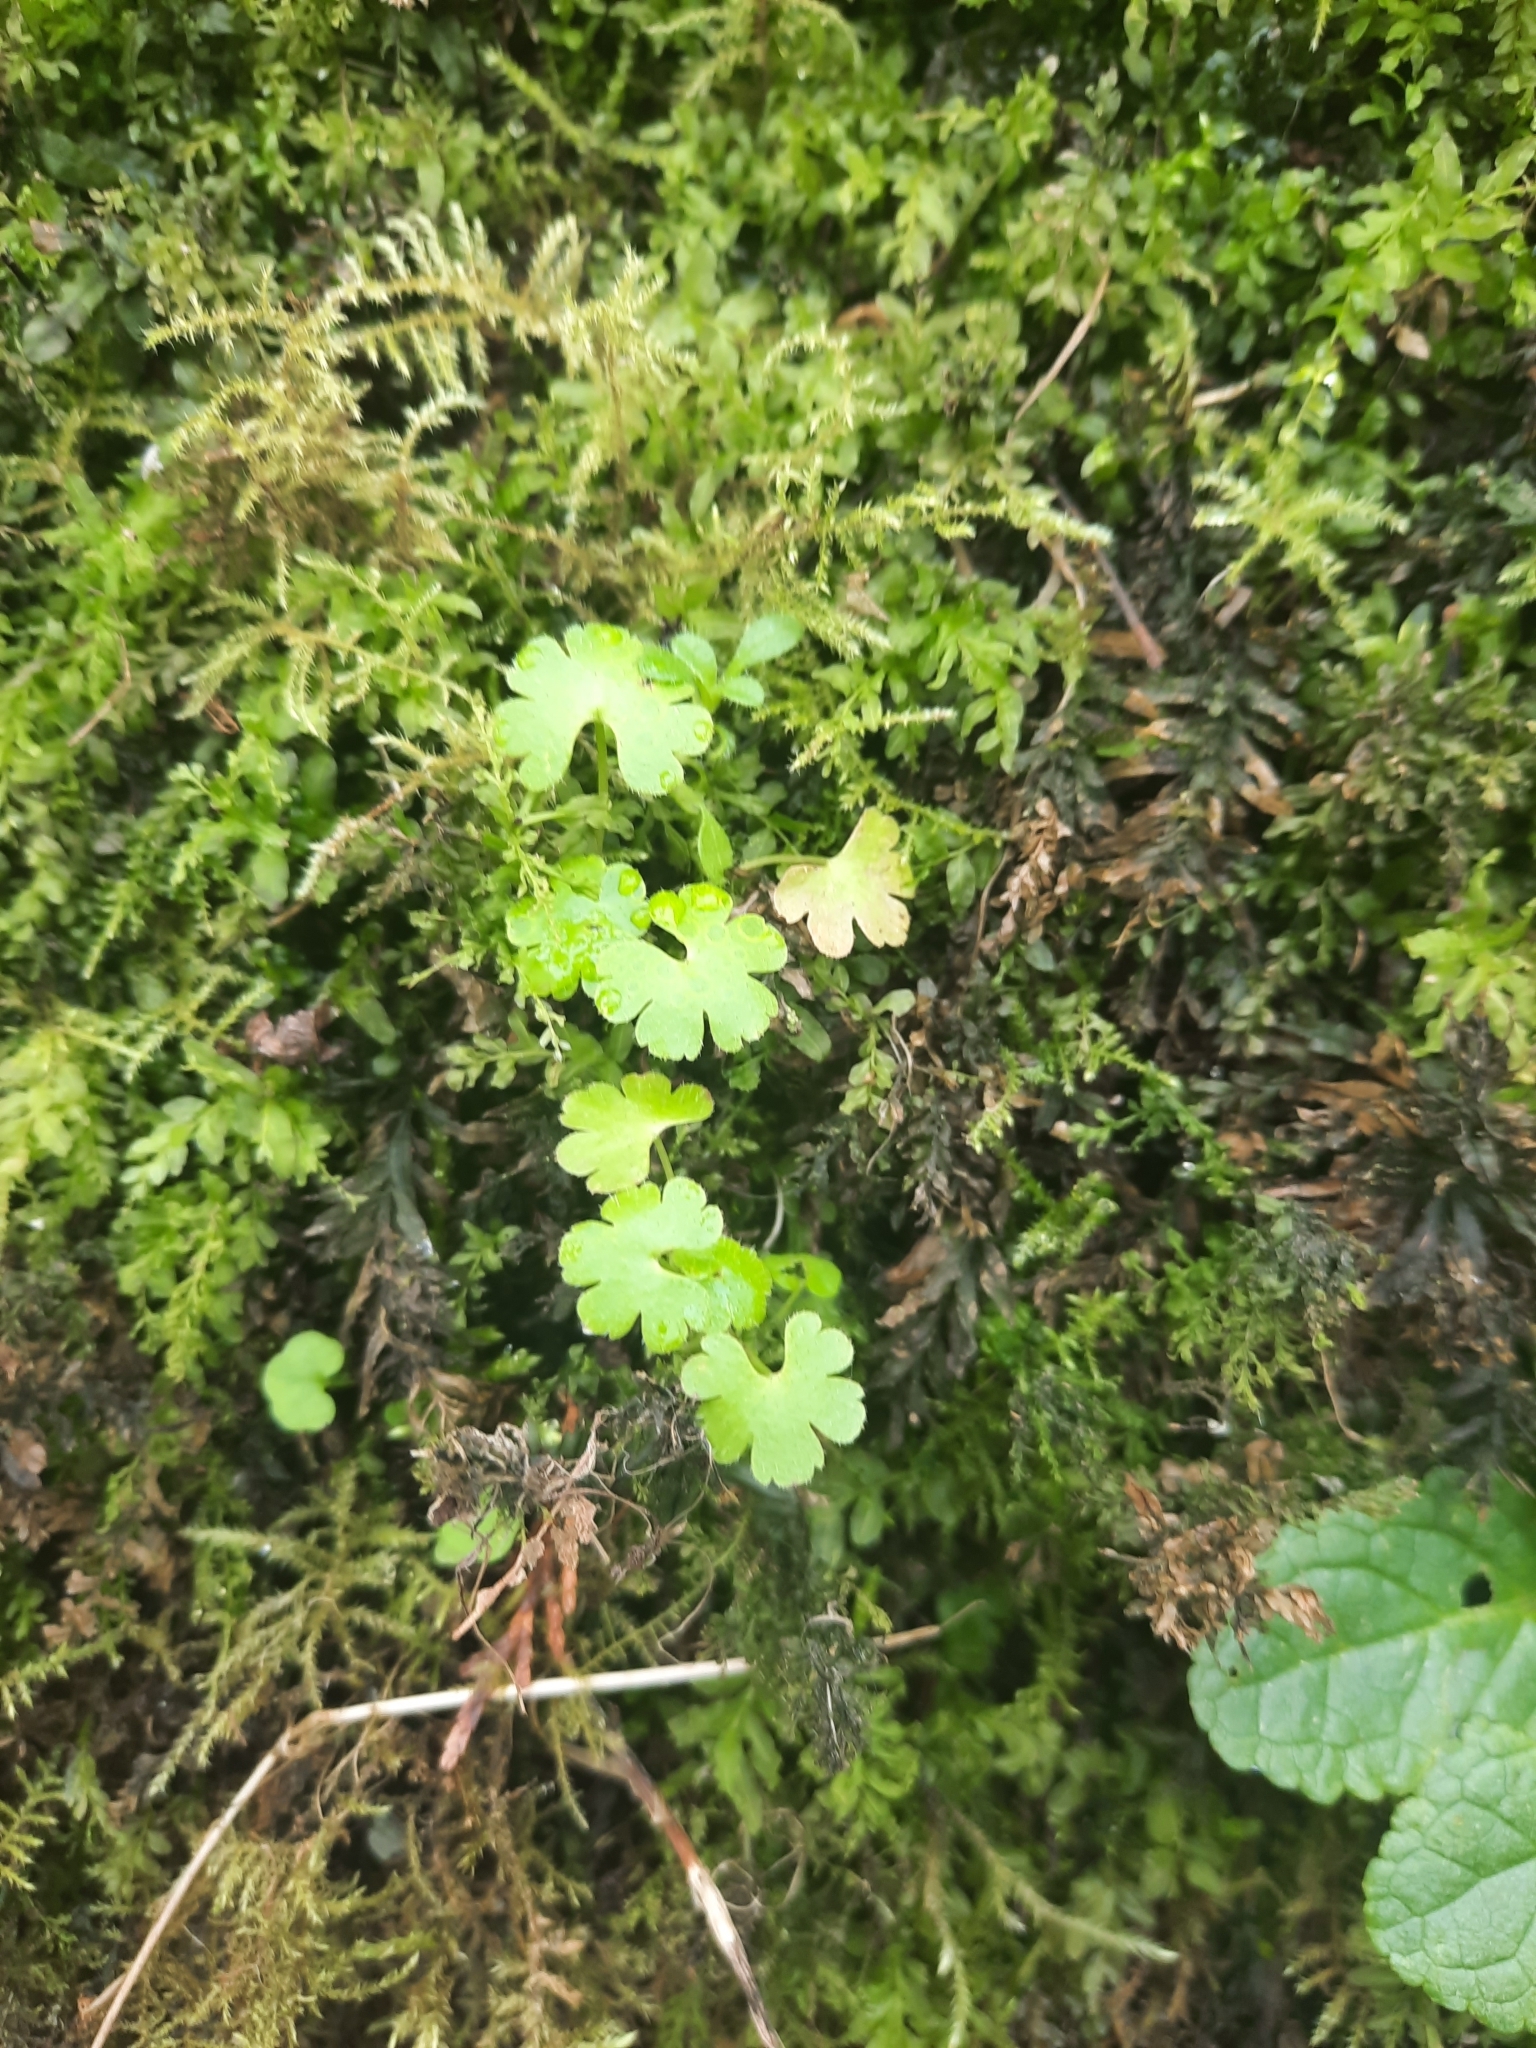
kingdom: Plantae
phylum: Tracheophyta
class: Magnoliopsida
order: Geraniales
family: Geraniaceae
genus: Geranium
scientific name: Geranium lucidum
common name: Shining crane's-bill
